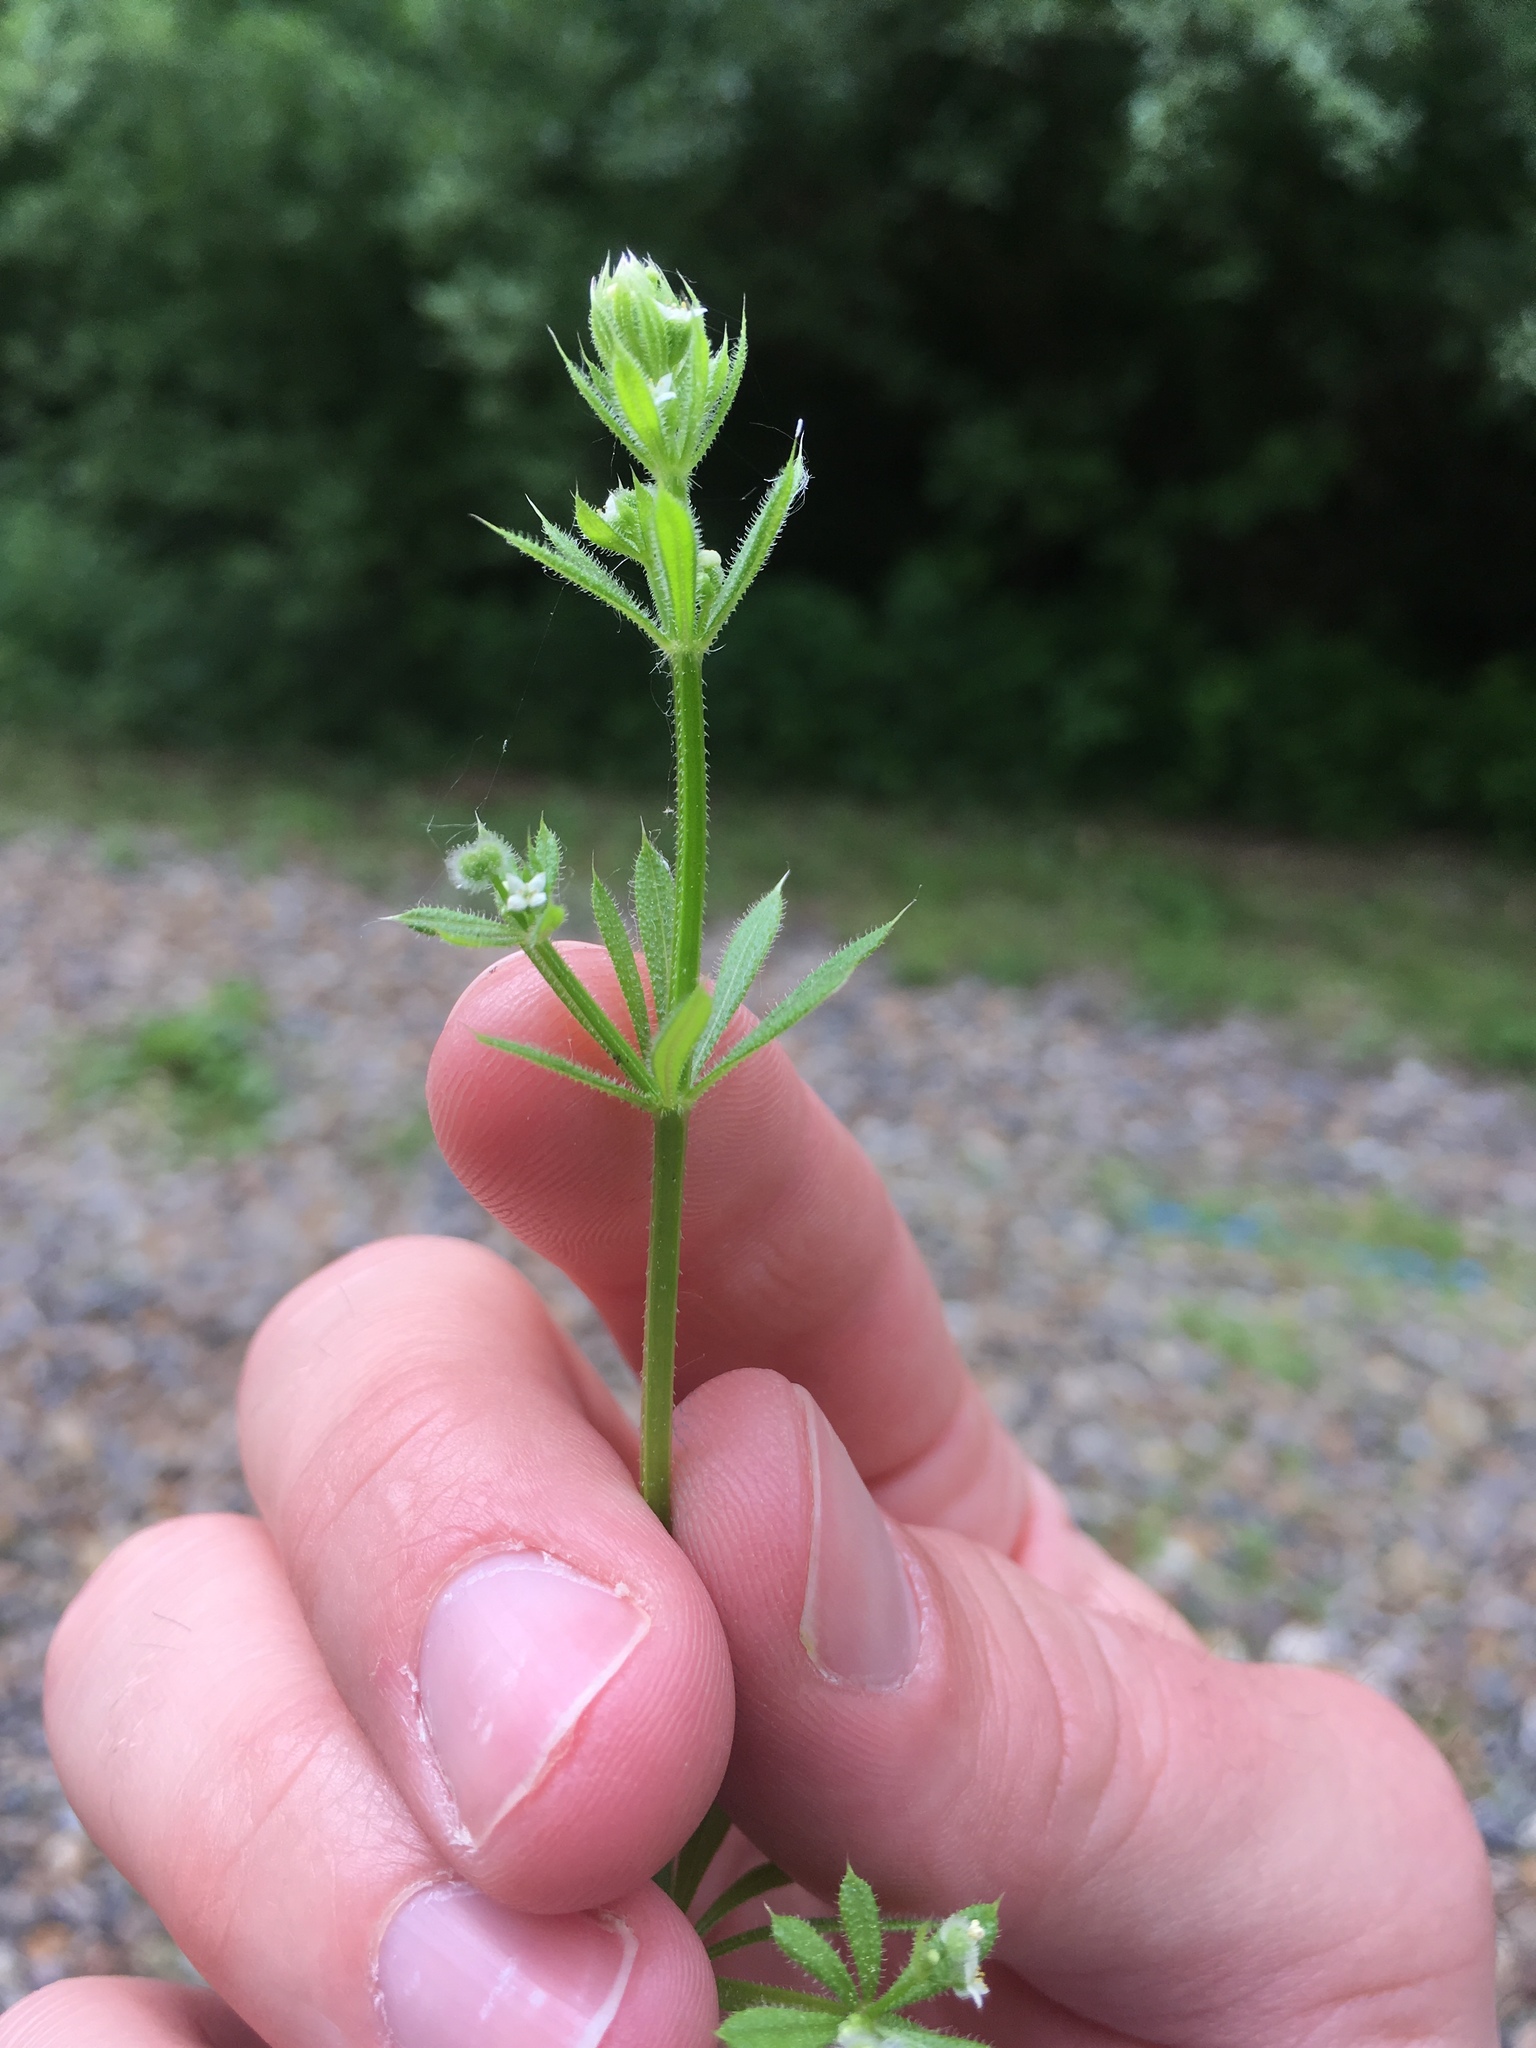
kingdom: Plantae
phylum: Tracheophyta
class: Magnoliopsida
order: Gentianales
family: Rubiaceae
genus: Galium
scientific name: Galium aparine
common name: Cleavers
